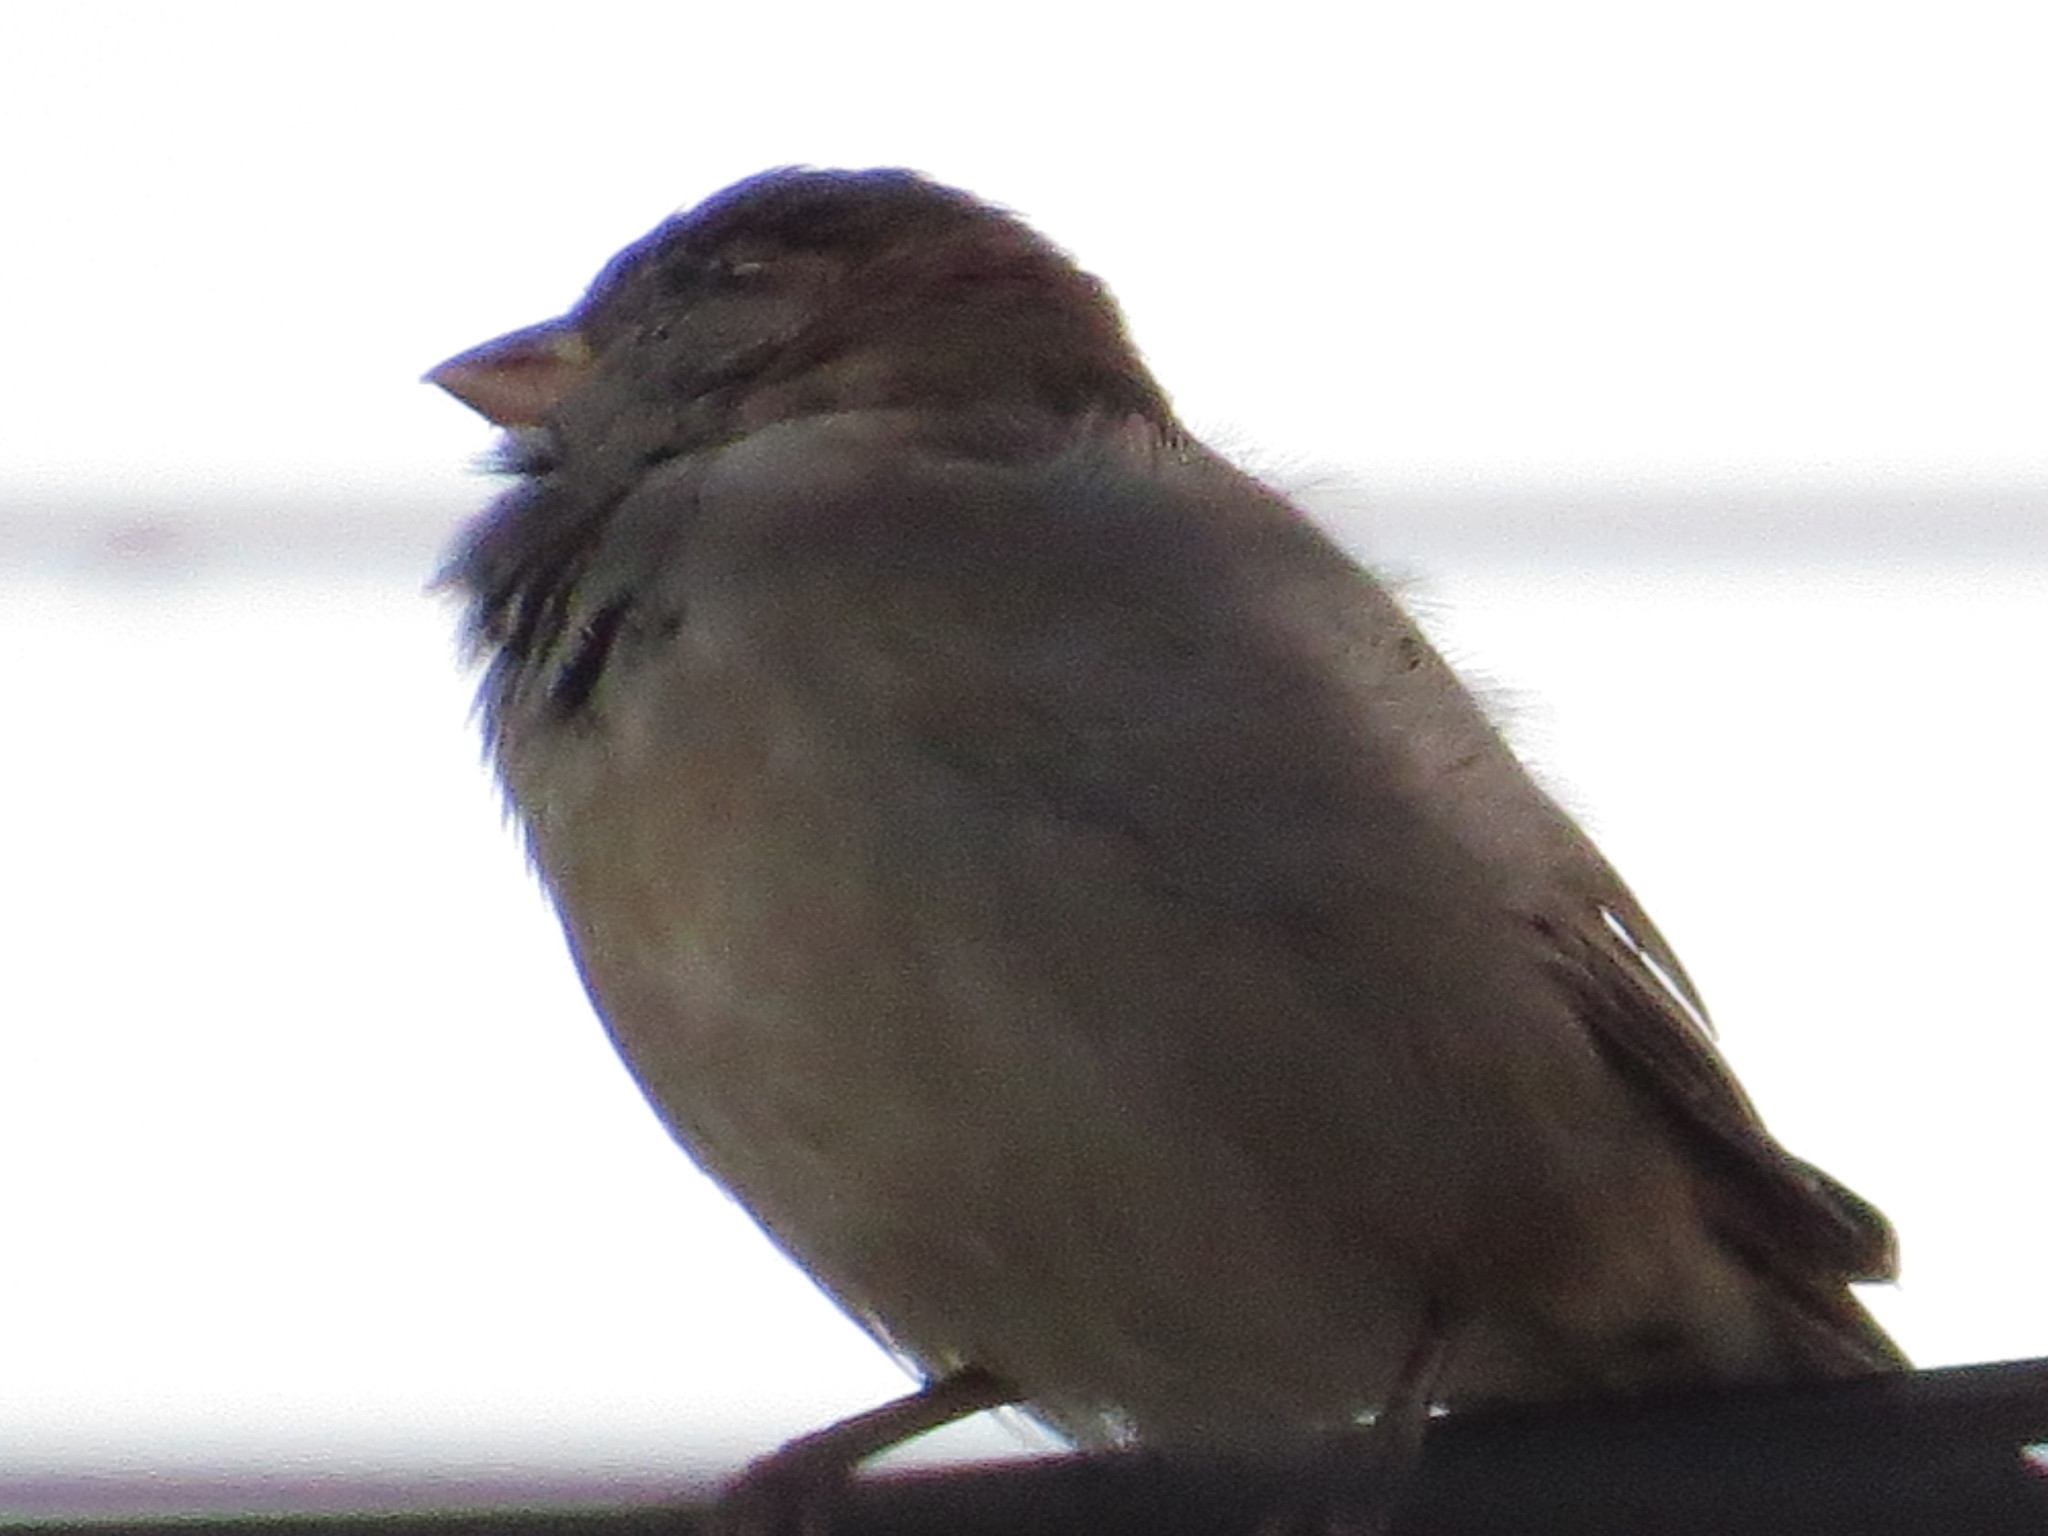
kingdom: Animalia
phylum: Chordata
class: Aves
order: Passeriformes
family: Passeridae
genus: Passer
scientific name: Passer domesticus
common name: House sparrow
